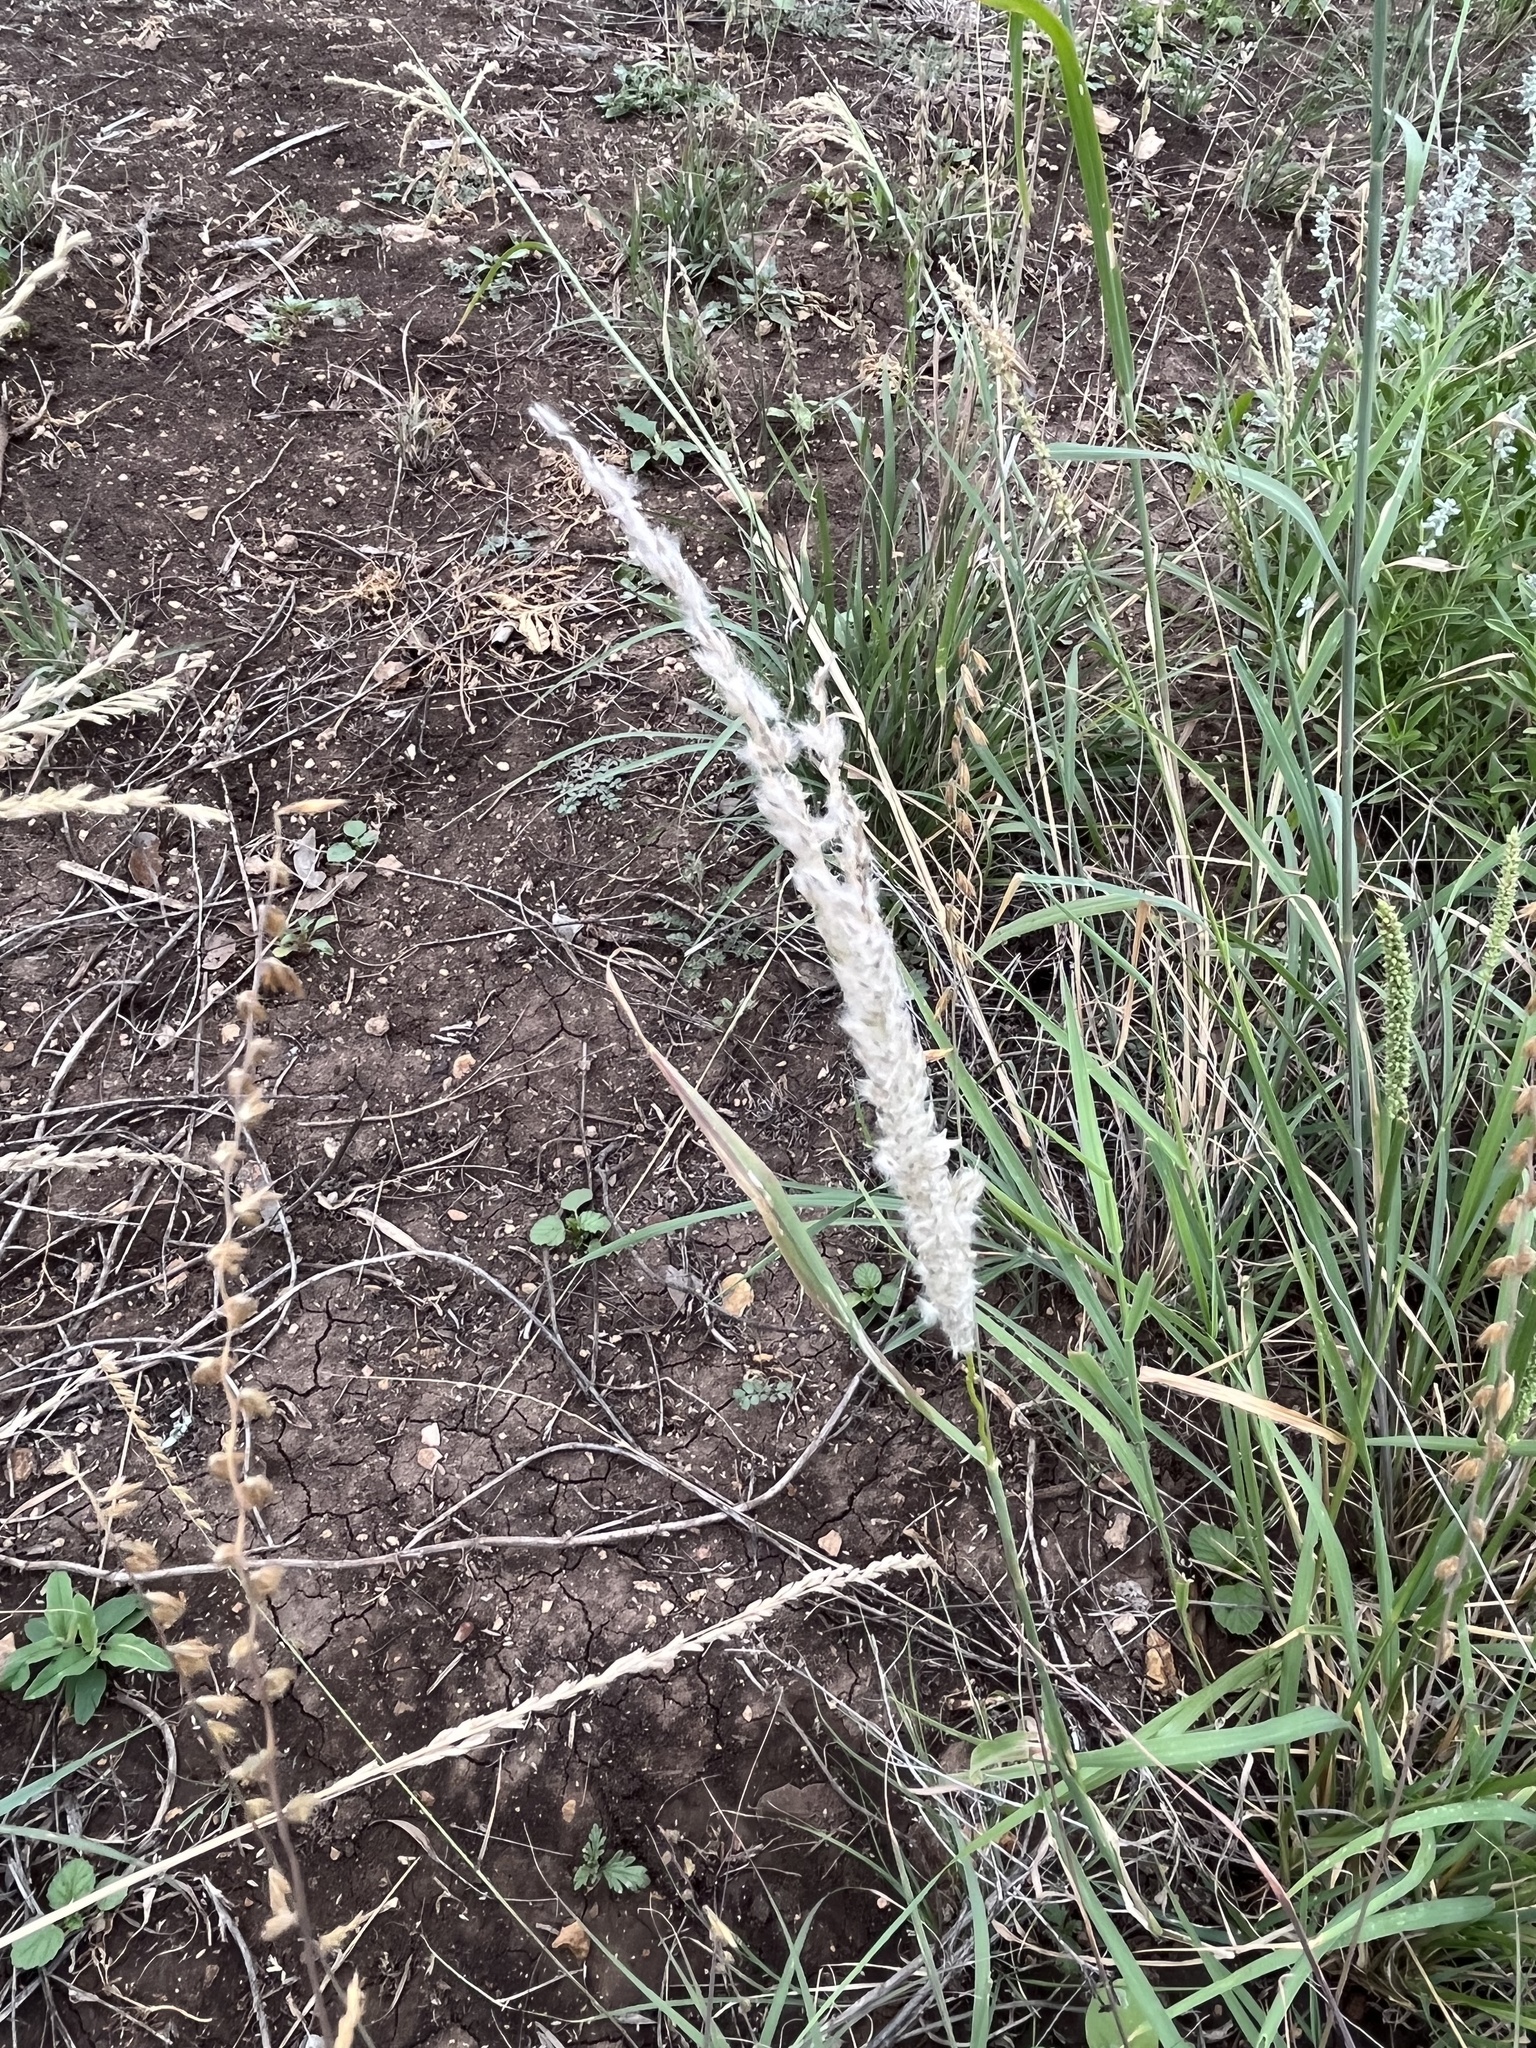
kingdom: Plantae
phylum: Tracheophyta
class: Liliopsida
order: Poales
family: Poaceae
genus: Digitaria
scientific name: Digitaria californica
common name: Arizona cottontop
